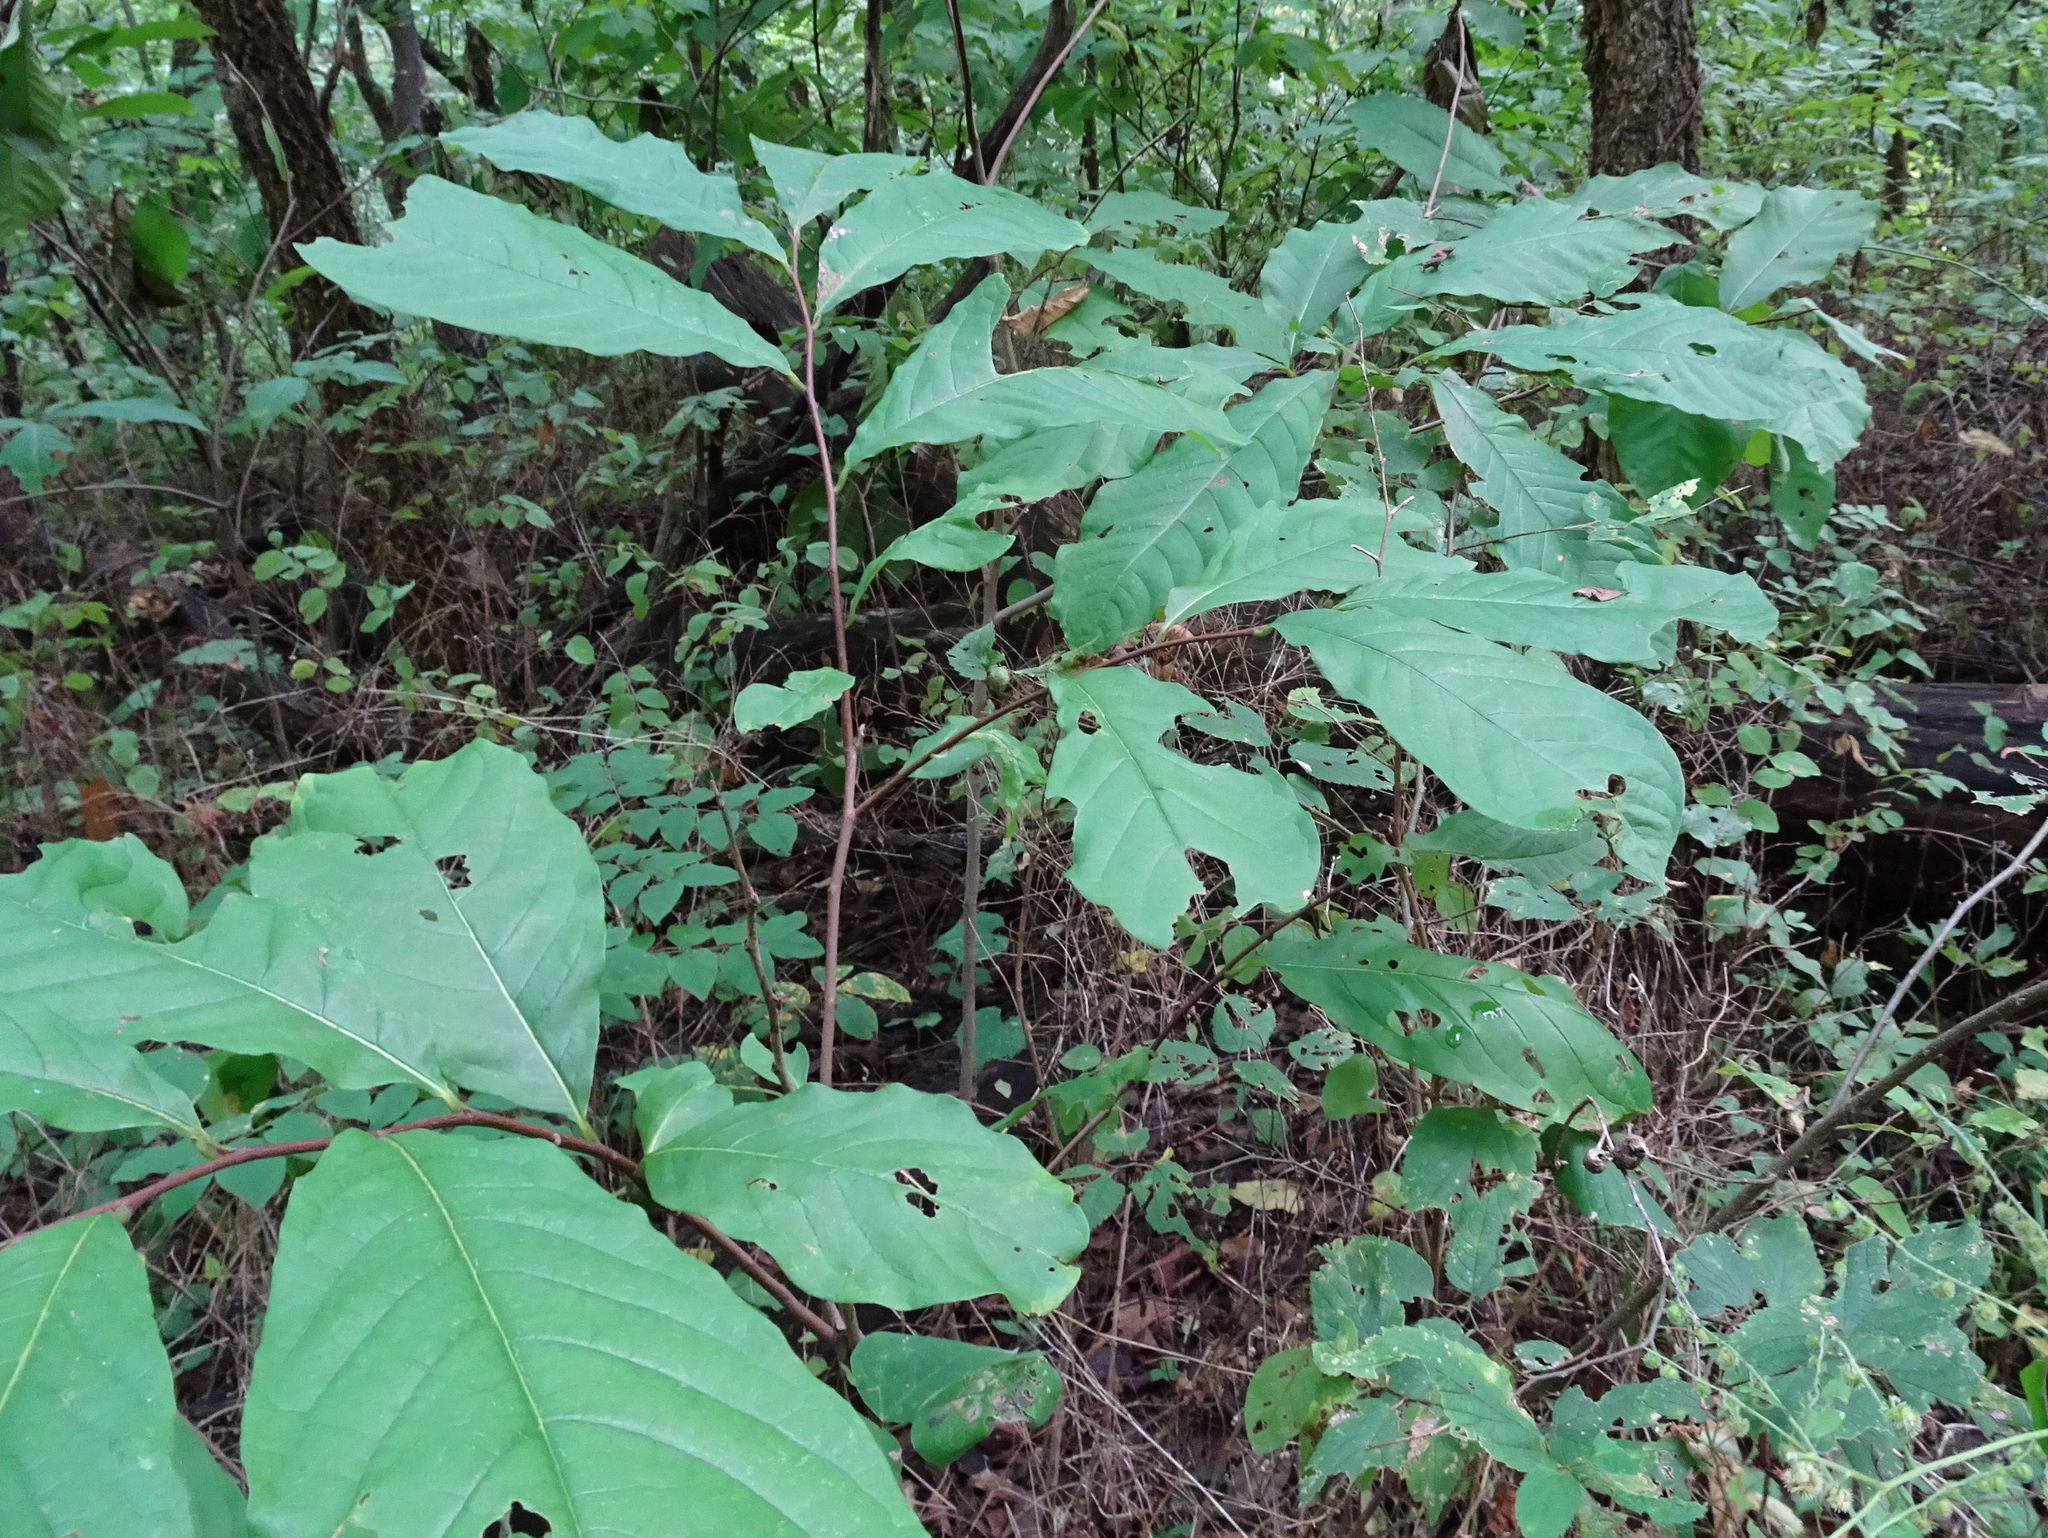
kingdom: Plantae
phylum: Tracheophyta
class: Magnoliopsida
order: Magnoliales
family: Annonaceae
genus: Asimina
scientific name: Asimina triloba
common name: Dog-banana
